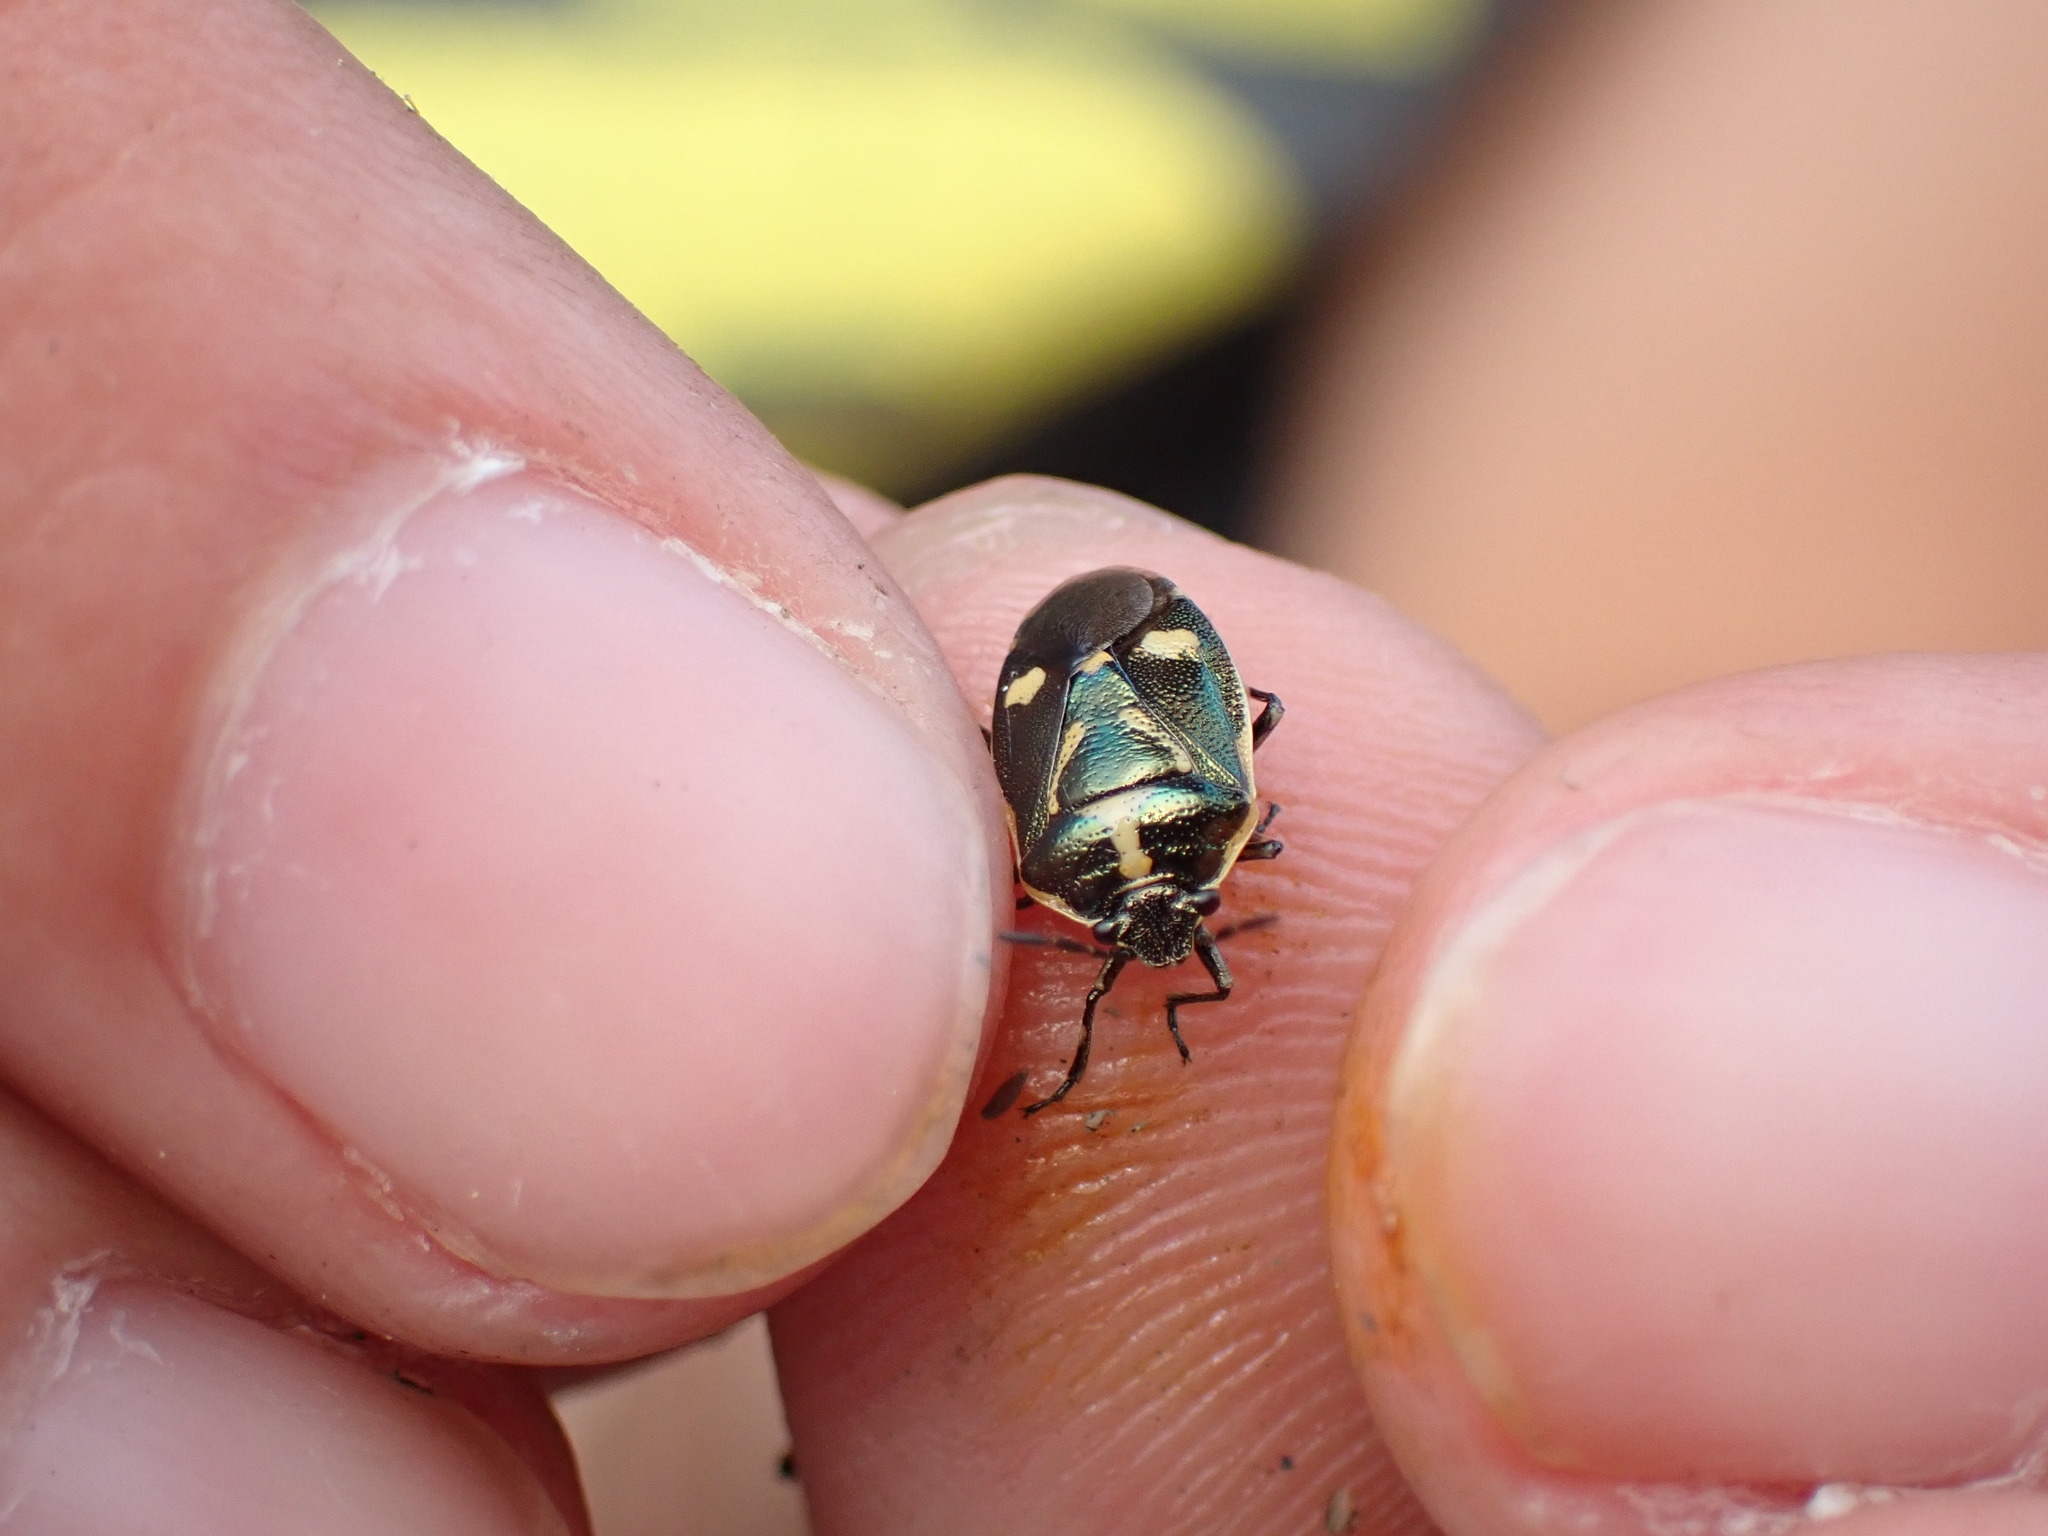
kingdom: Animalia
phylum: Arthropoda
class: Insecta
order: Hemiptera
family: Pentatomidae
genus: Eurydema
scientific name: Eurydema oleracea
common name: Cabbage bug
